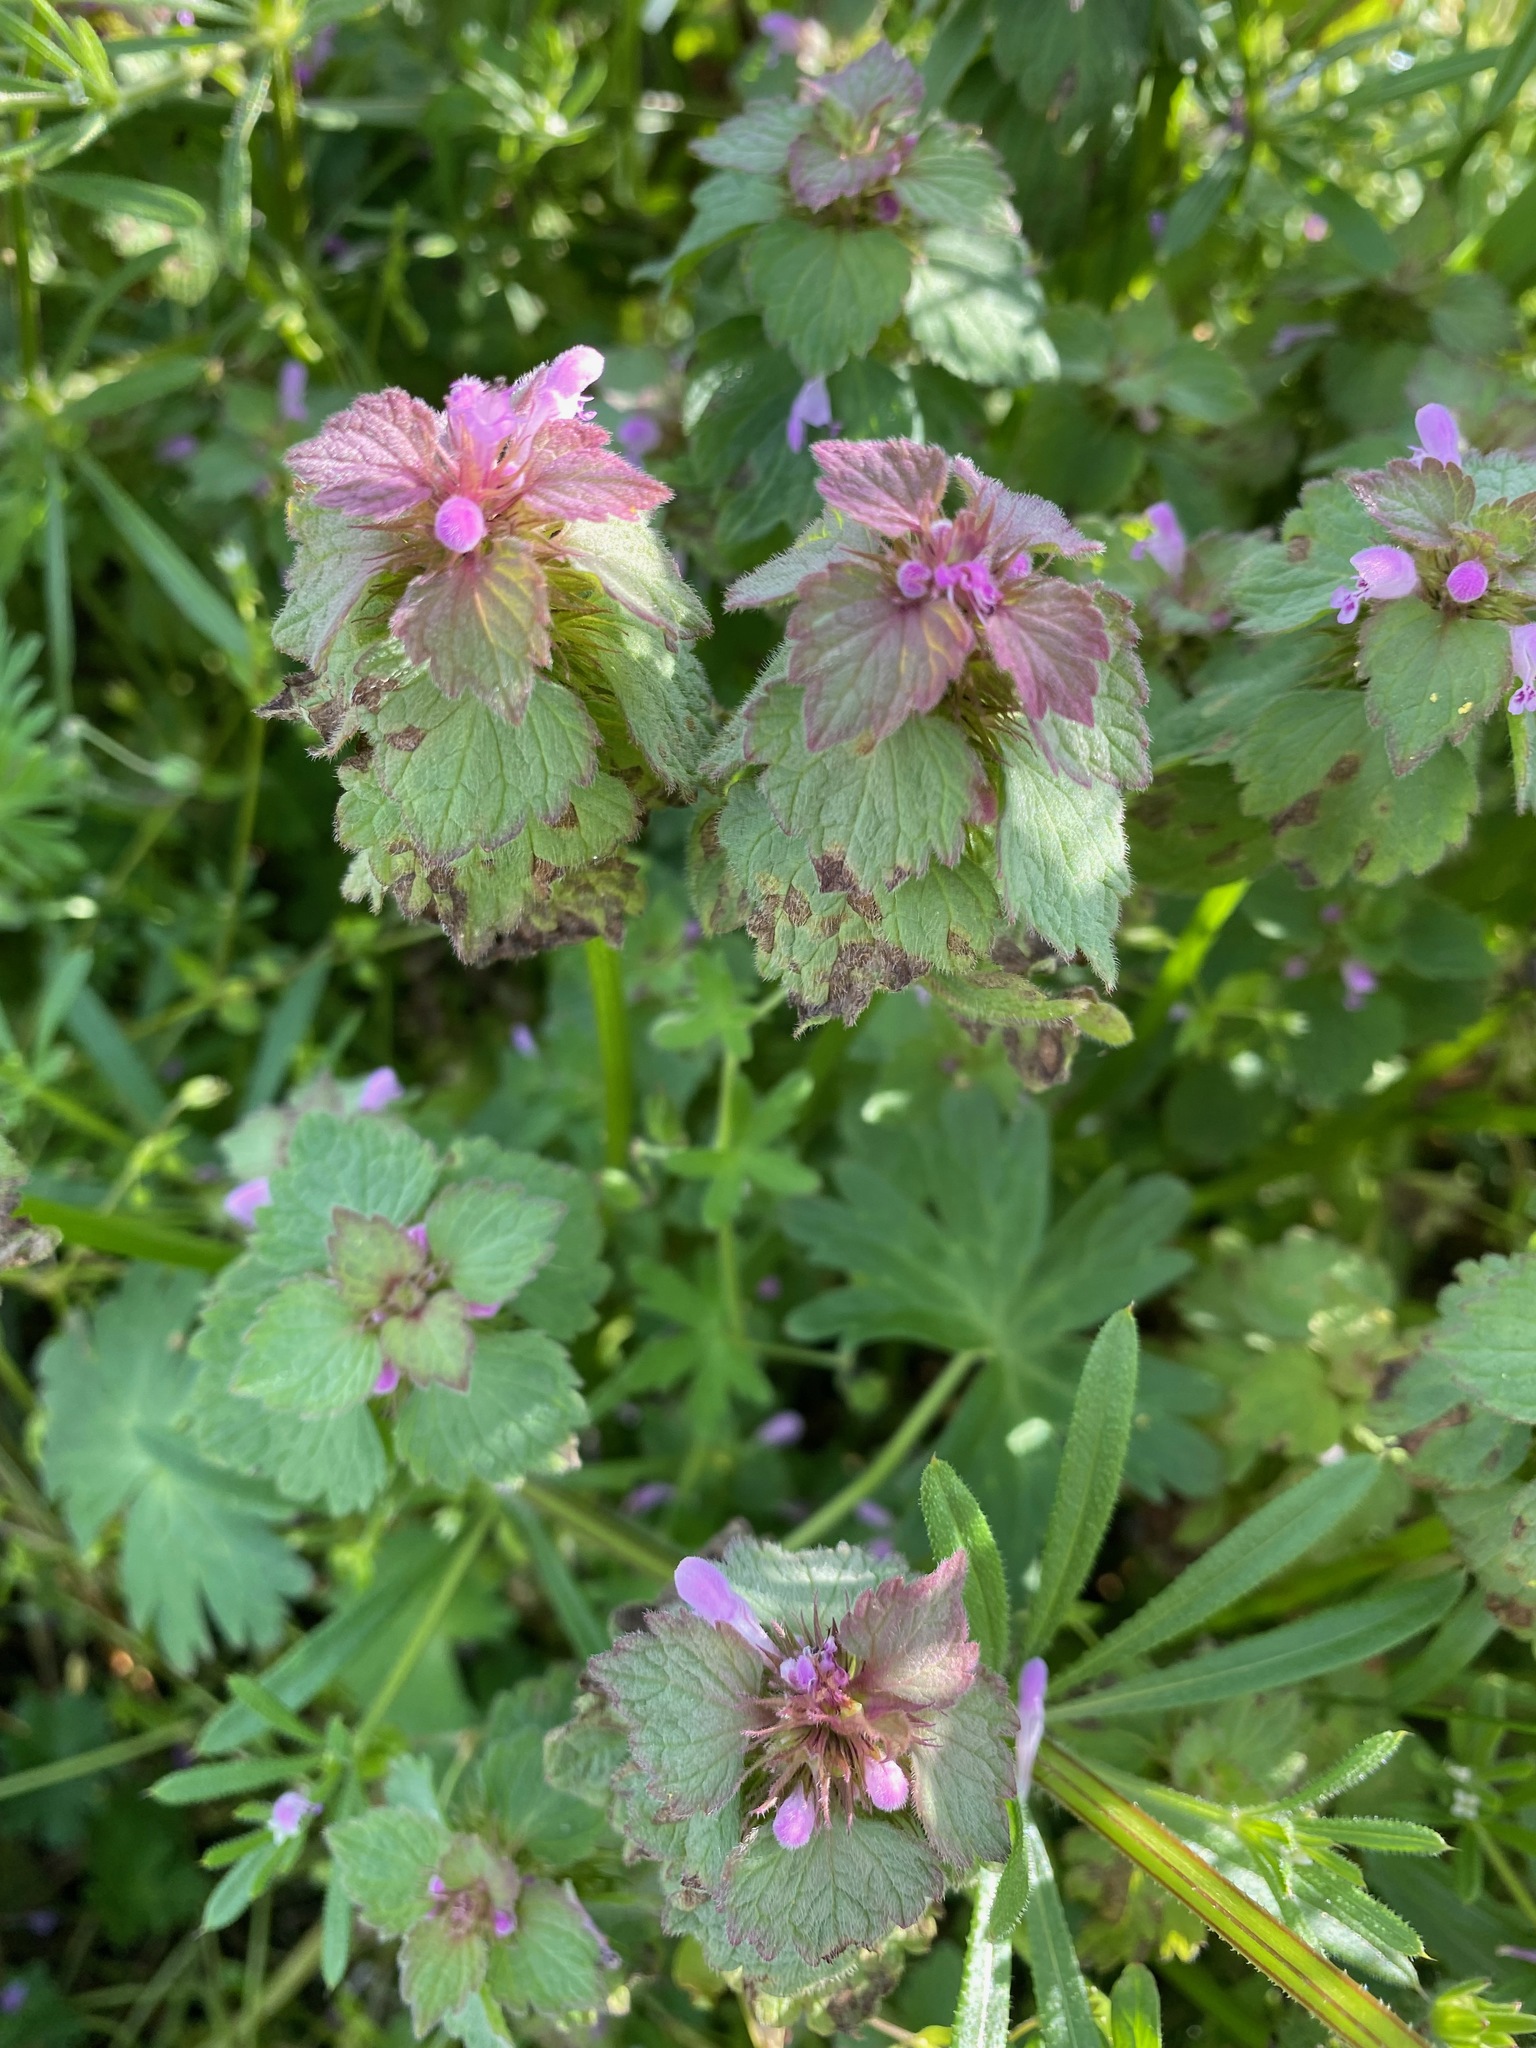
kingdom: Plantae
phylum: Tracheophyta
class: Magnoliopsida
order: Lamiales
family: Lamiaceae
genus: Lamium
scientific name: Lamium purpureum
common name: Red dead-nettle
